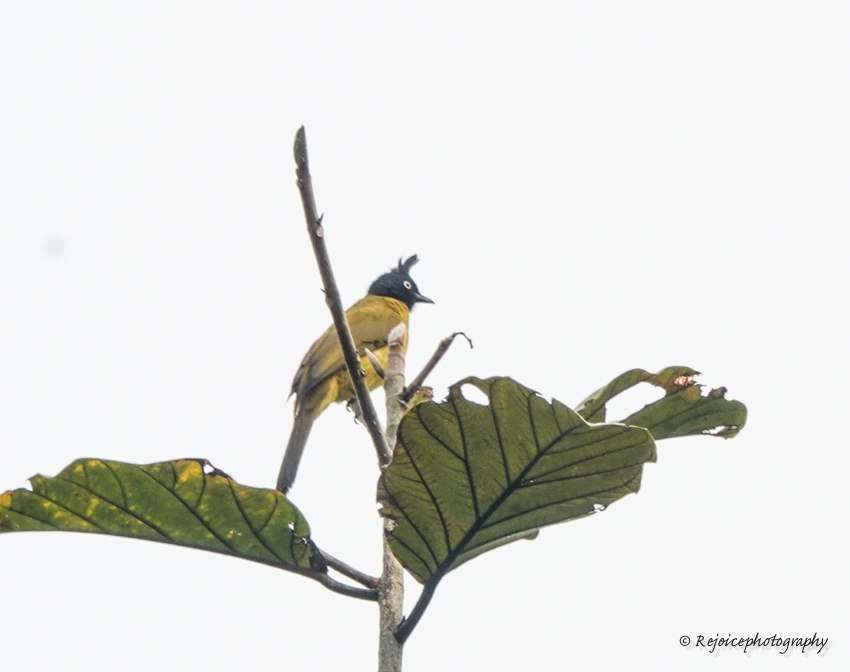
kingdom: Animalia
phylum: Chordata
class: Aves
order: Passeriformes
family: Pycnonotidae
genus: Pycnonotus
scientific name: Pycnonotus flaviventris
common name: Black-crested bulbul
